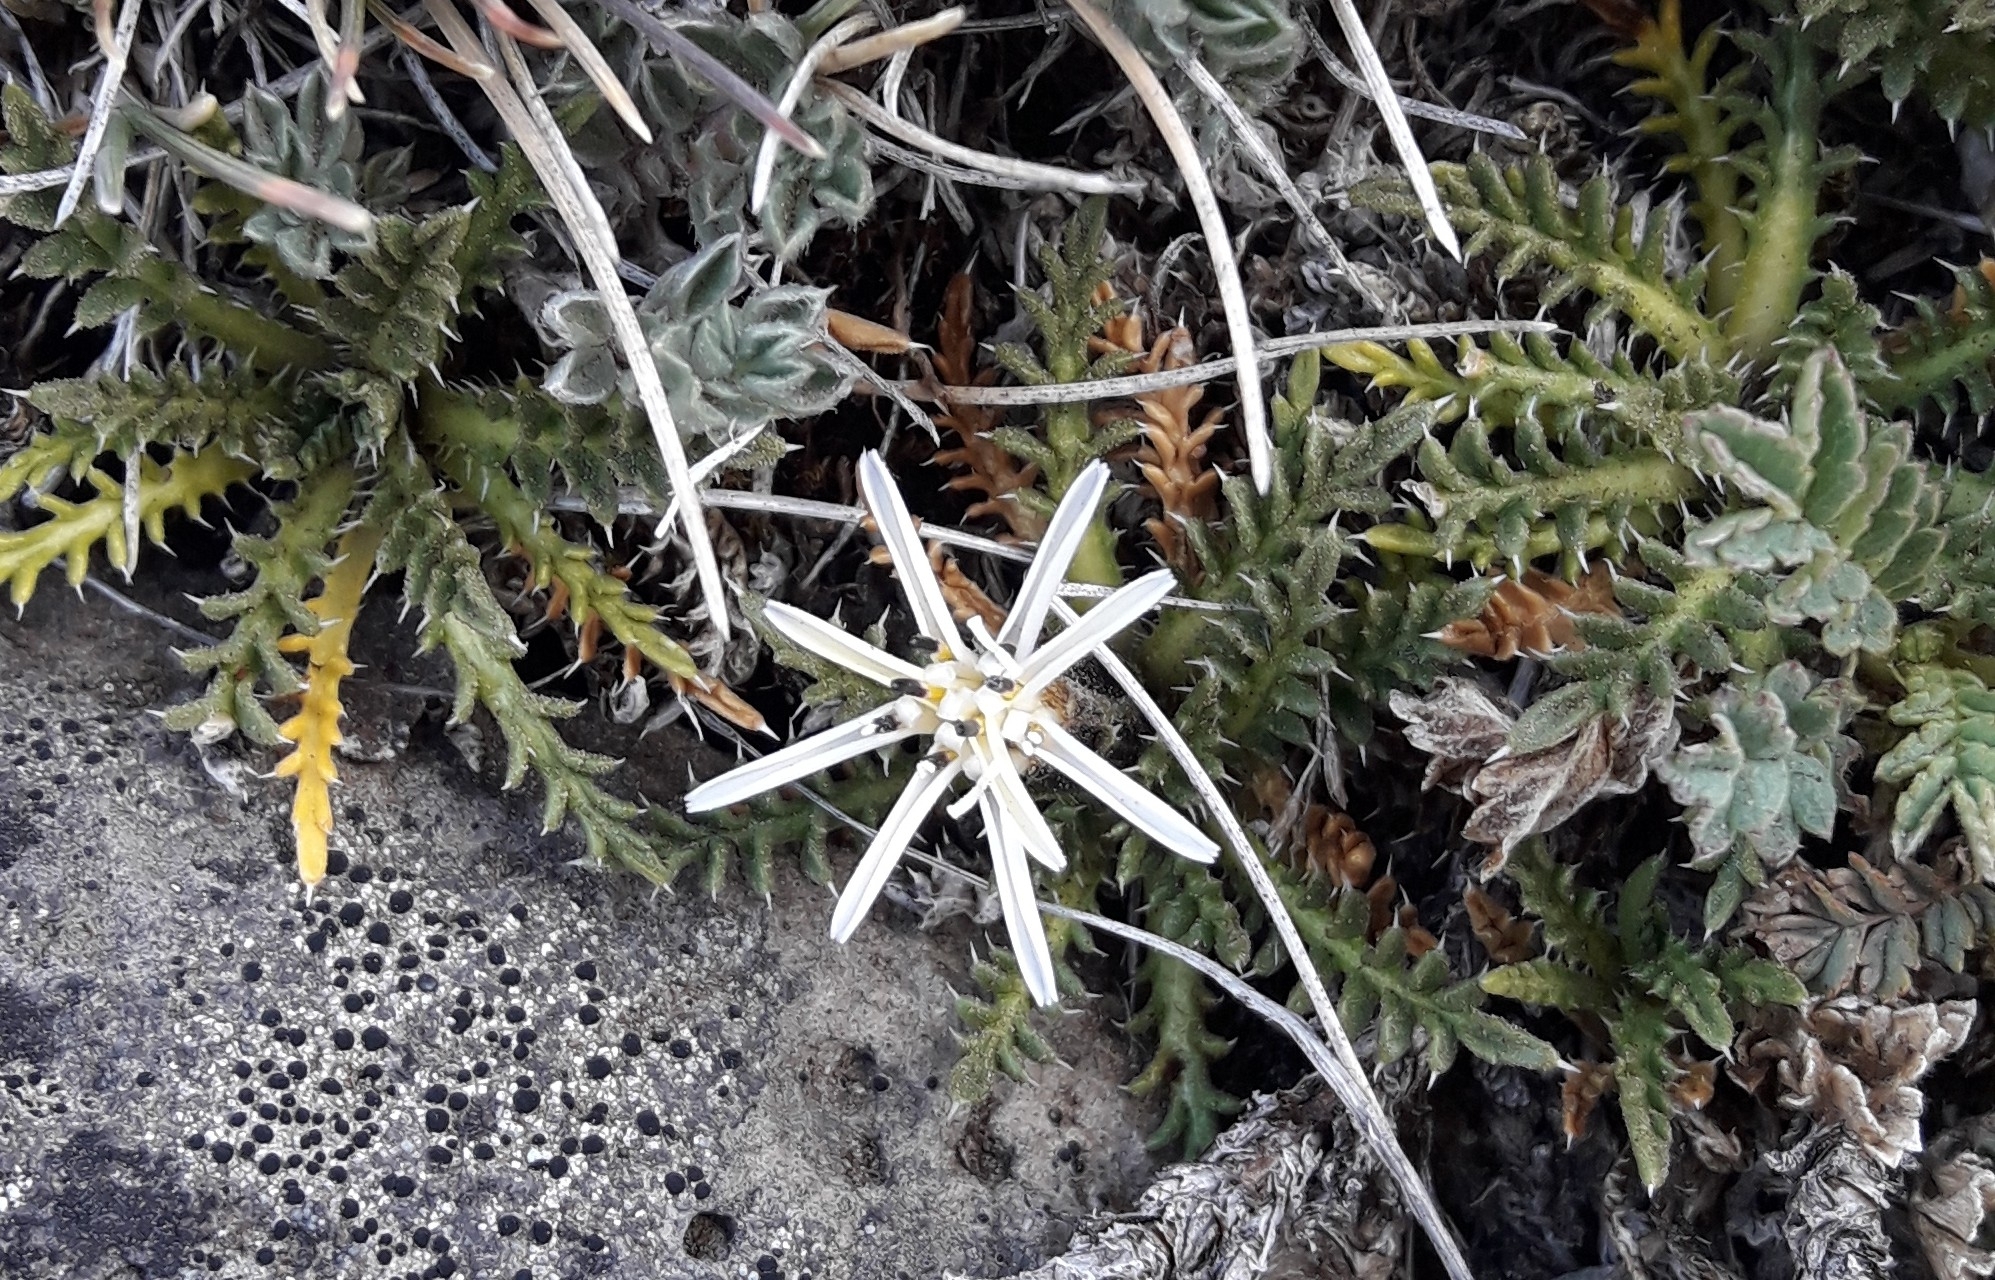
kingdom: Plantae
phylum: Tracheophyta
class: Magnoliopsida
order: Asterales
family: Asteraceae
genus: Perezia
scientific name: Perezia pilifera
